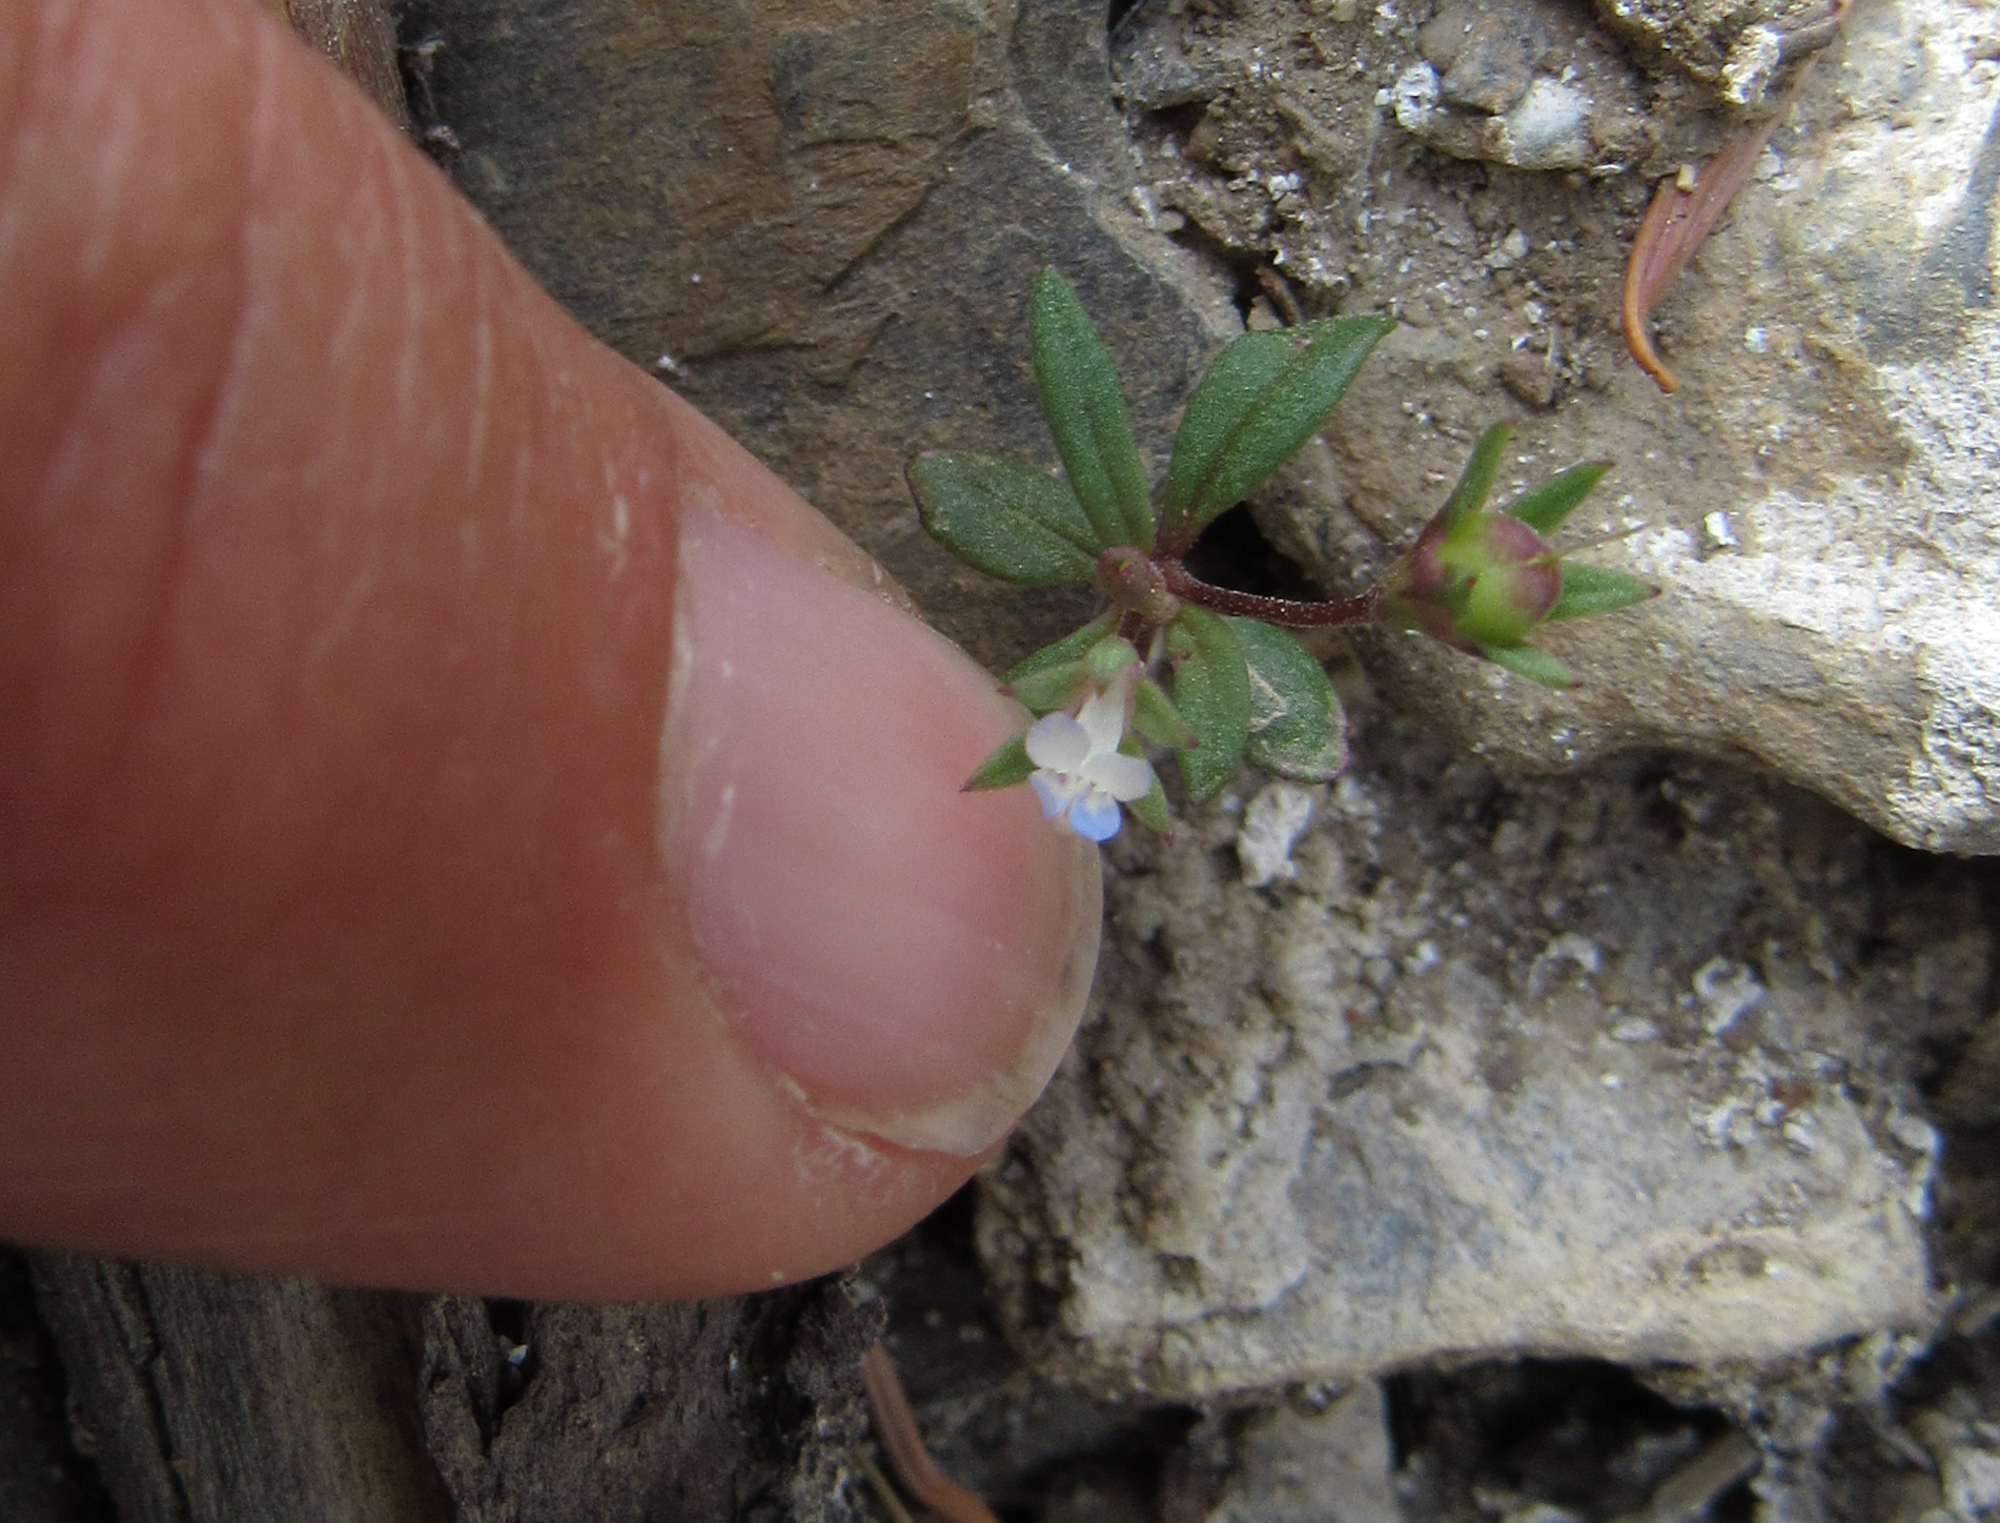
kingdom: Plantae
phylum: Tracheophyta
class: Magnoliopsida
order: Lamiales
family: Plantaginaceae
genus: Collinsia
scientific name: Collinsia parviflora
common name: Blue-lips
